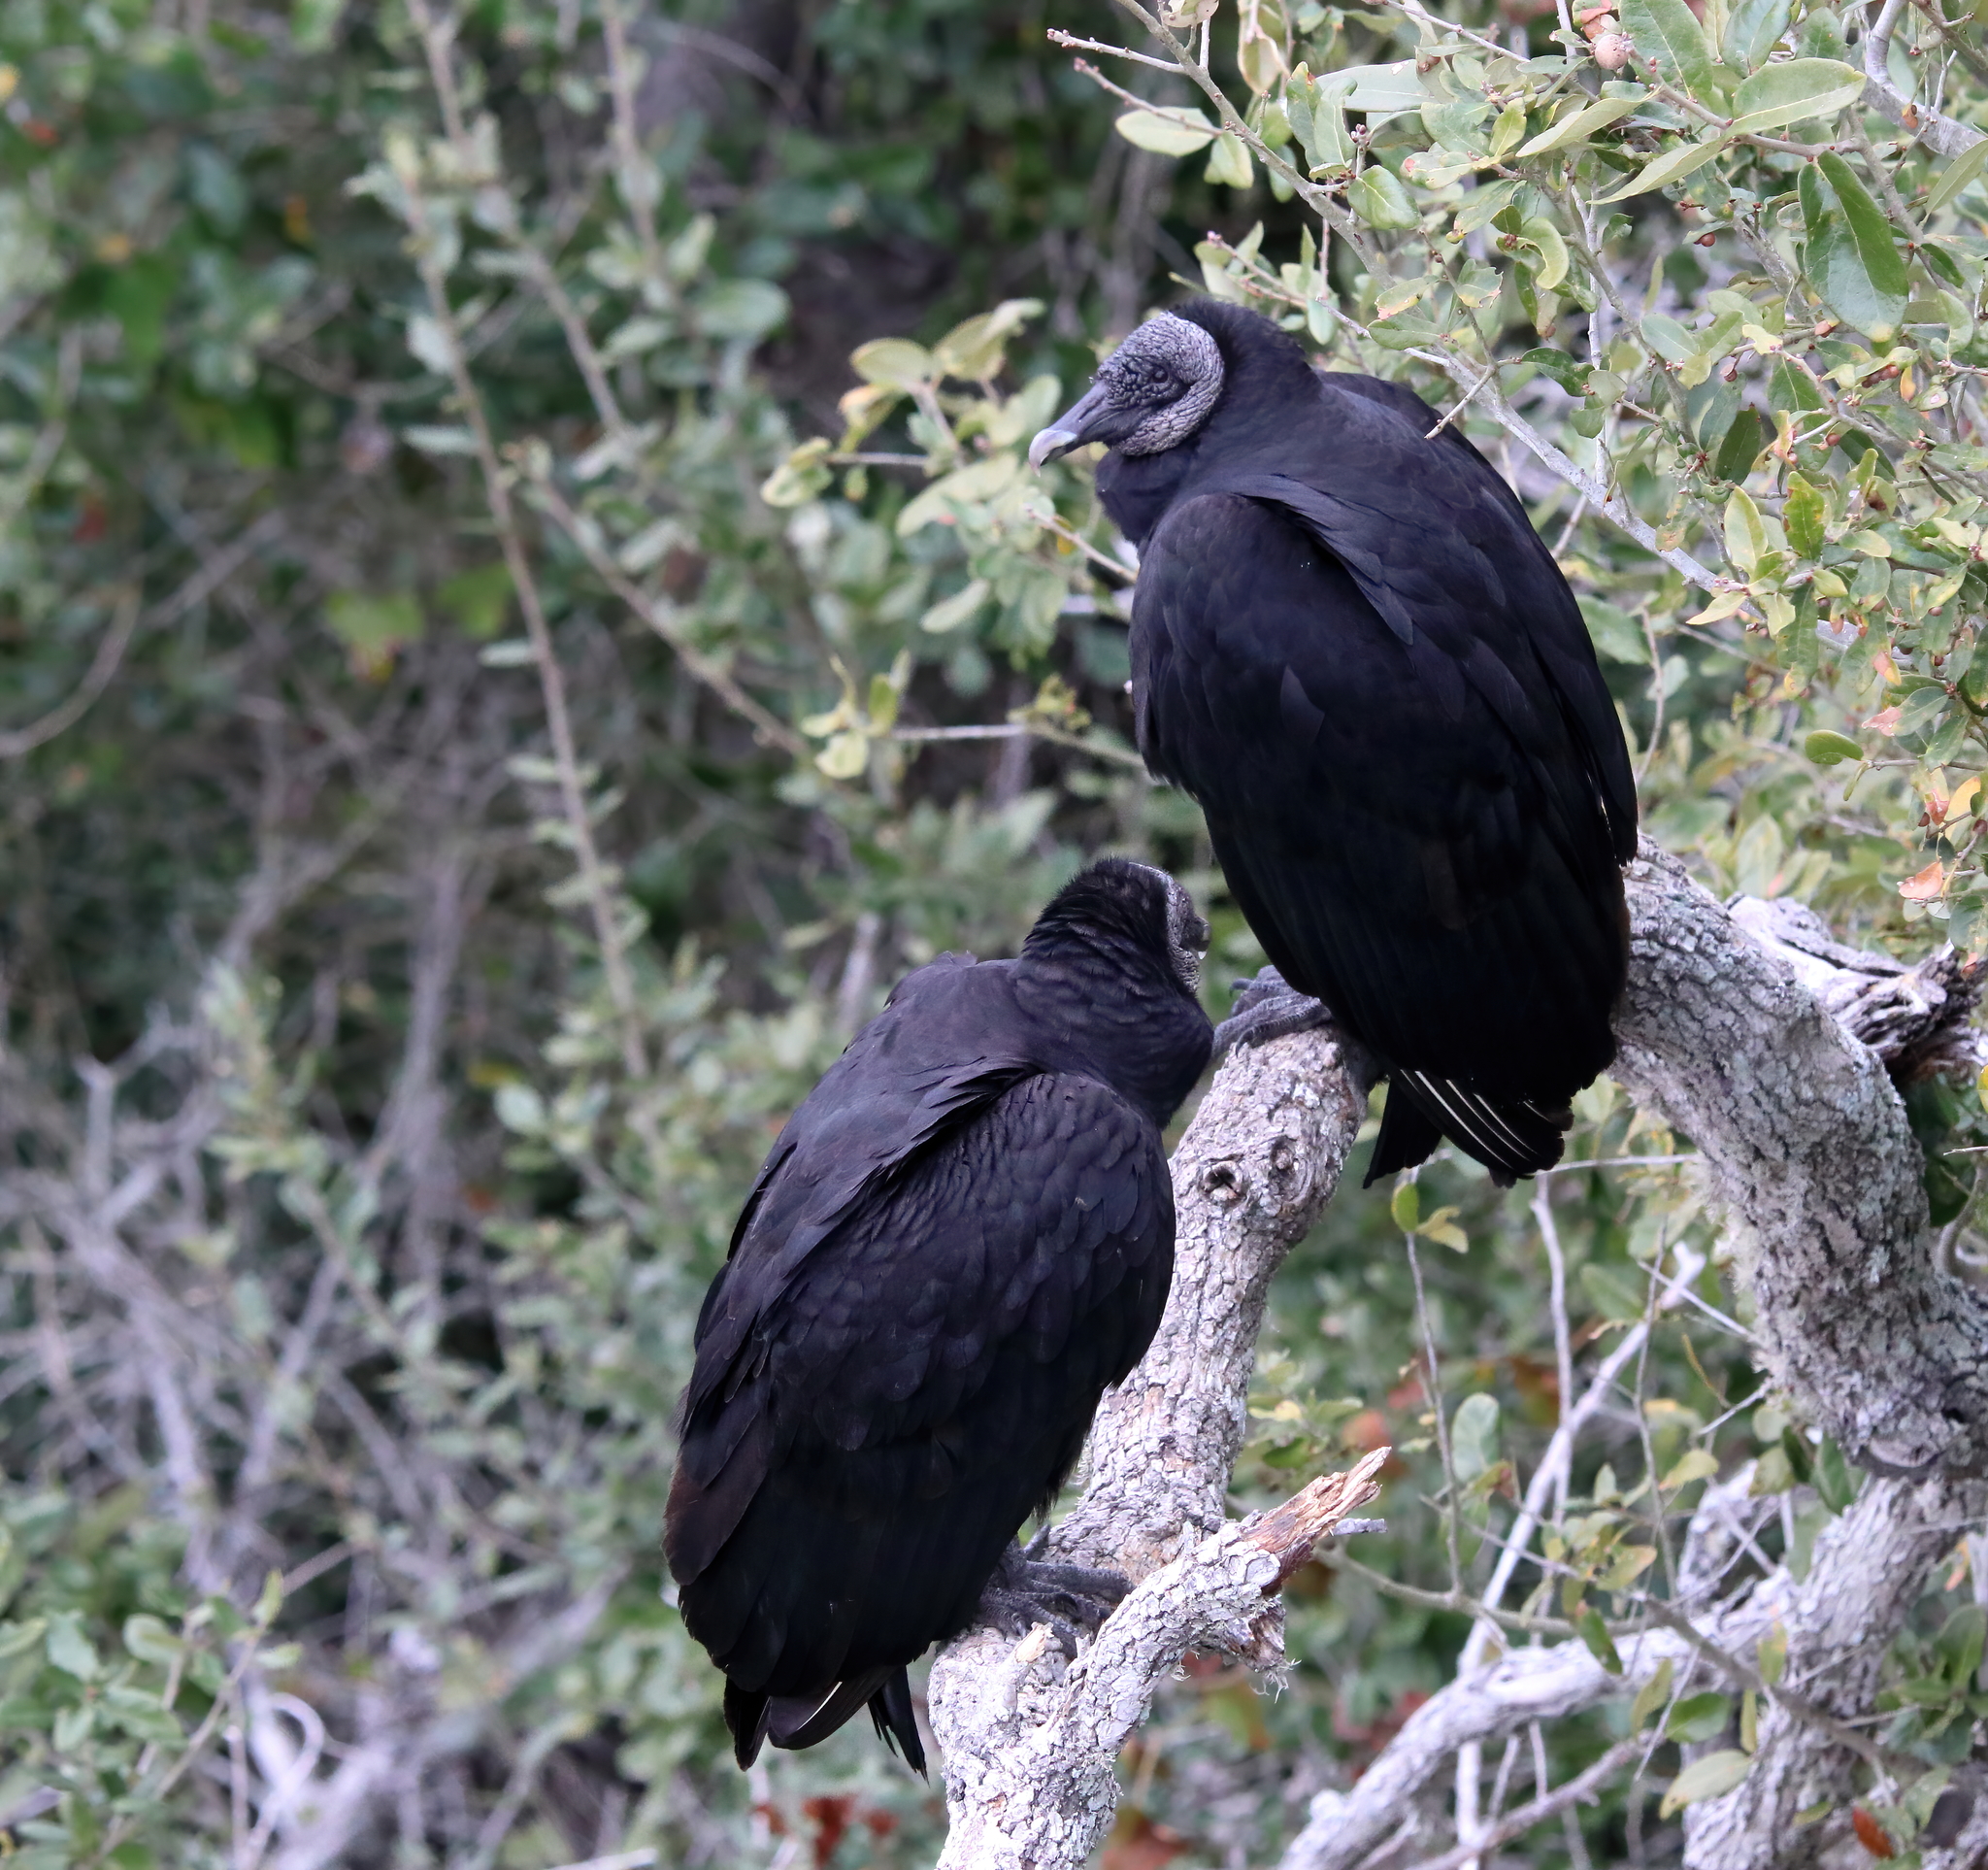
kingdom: Animalia
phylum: Chordata
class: Aves
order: Accipitriformes
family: Cathartidae
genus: Coragyps
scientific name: Coragyps atratus
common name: Black vulture
